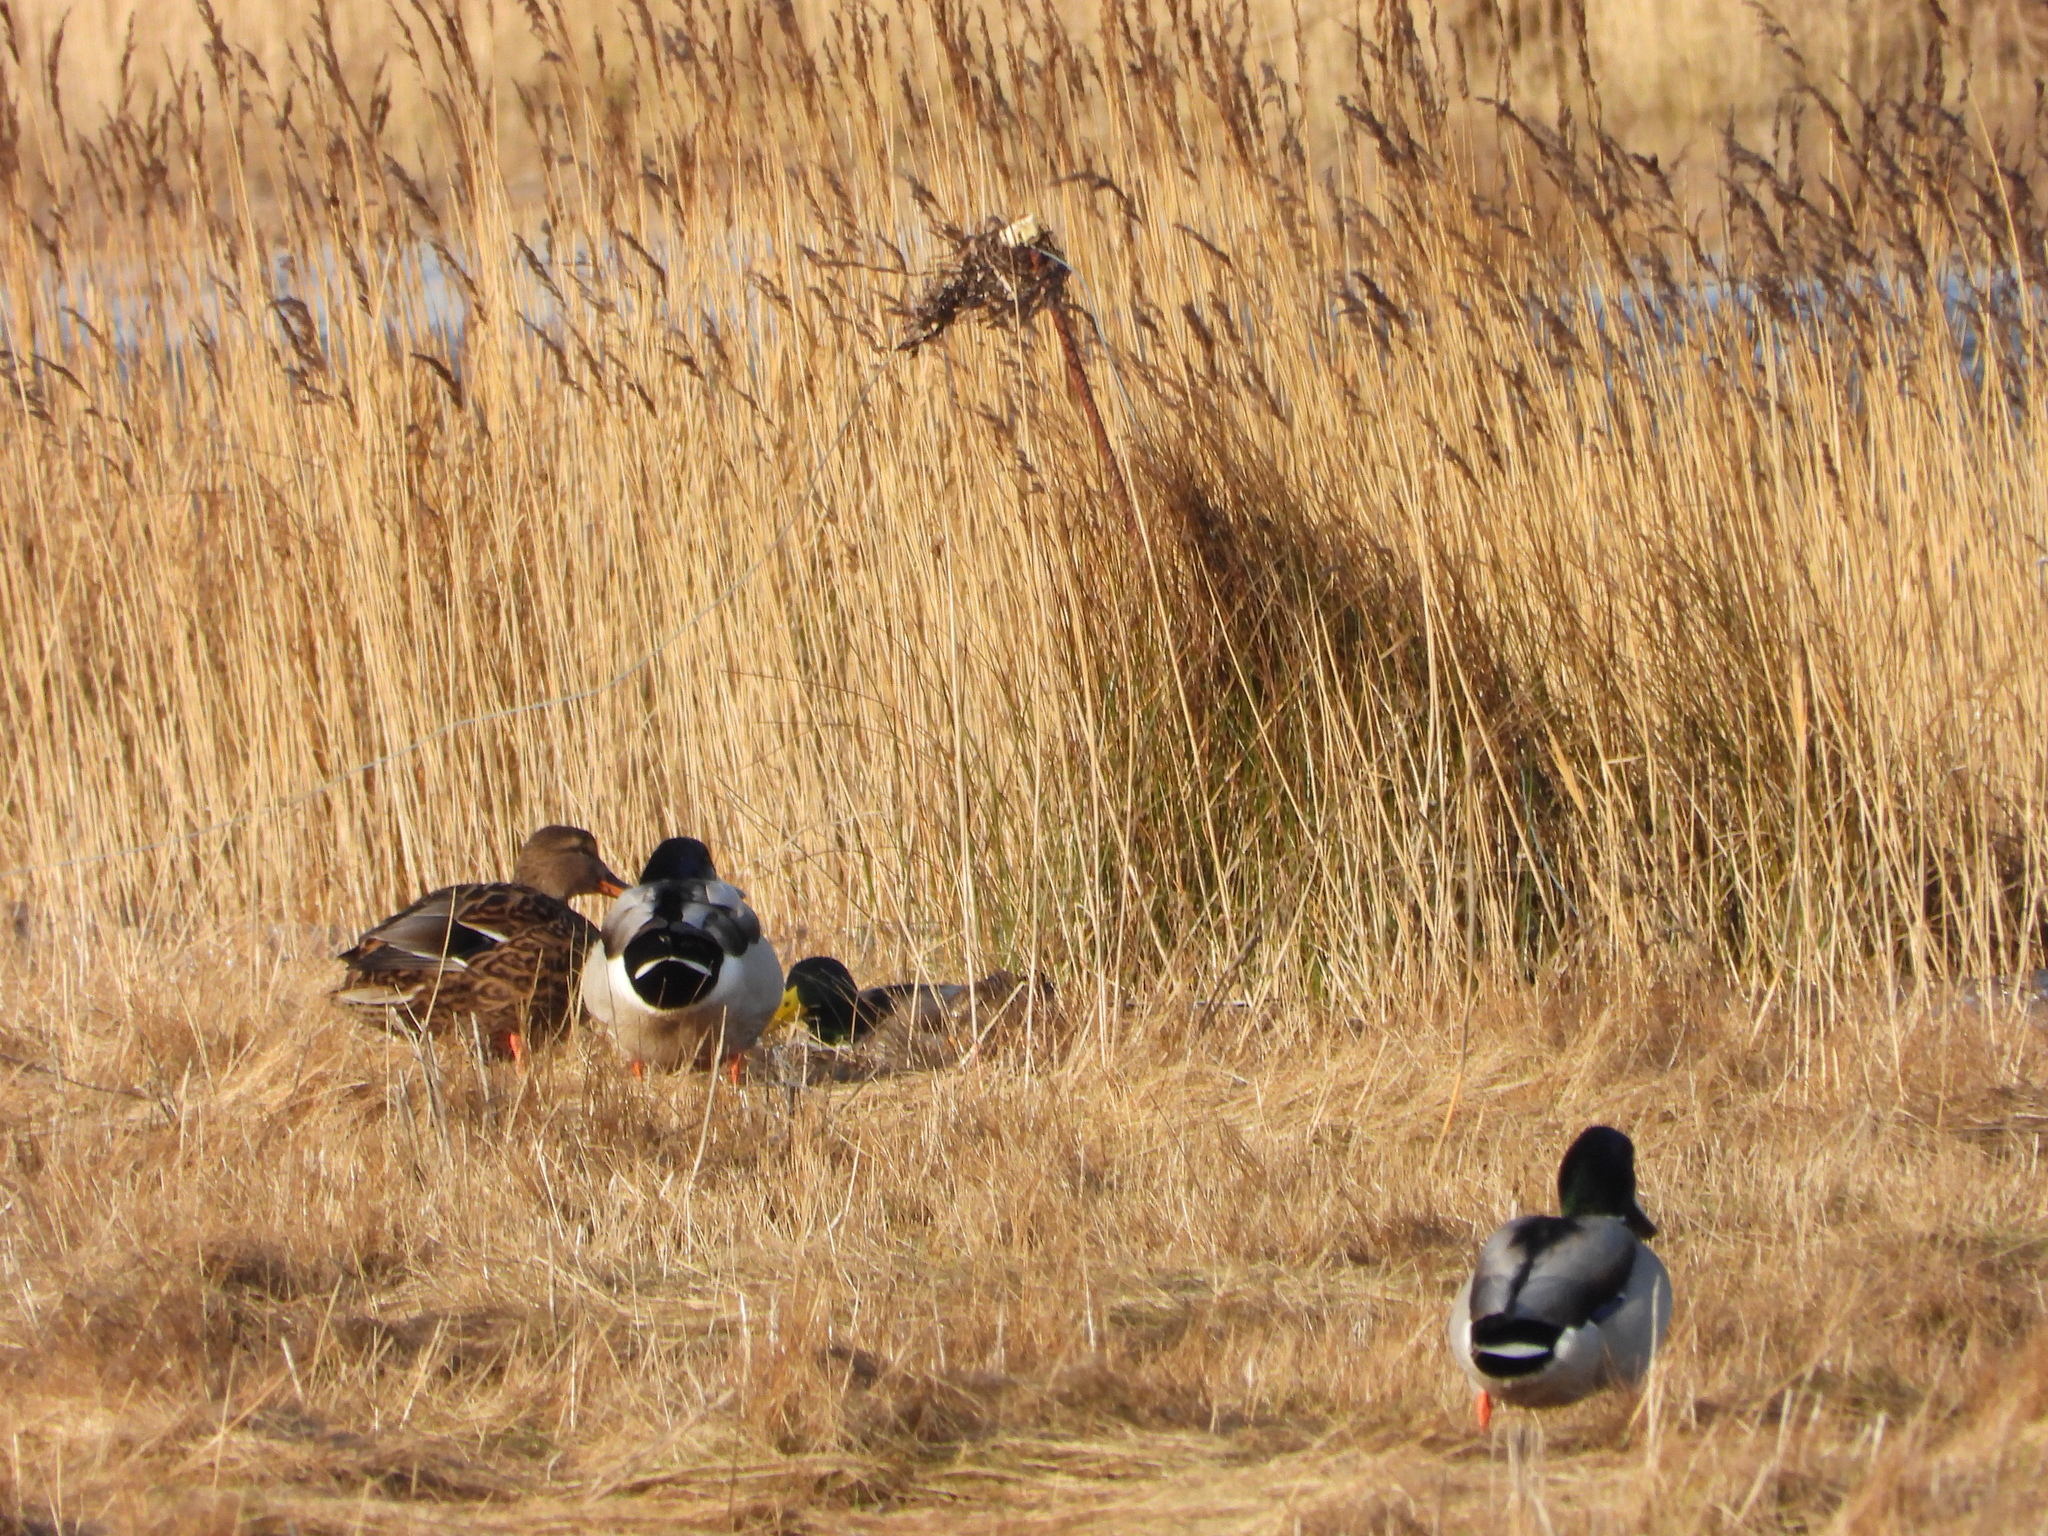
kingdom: Animalia
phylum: Chordata
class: Aves
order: Anseriformes
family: Anatidae
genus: Anas
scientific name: Anas platyrhynchos
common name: Mallard
